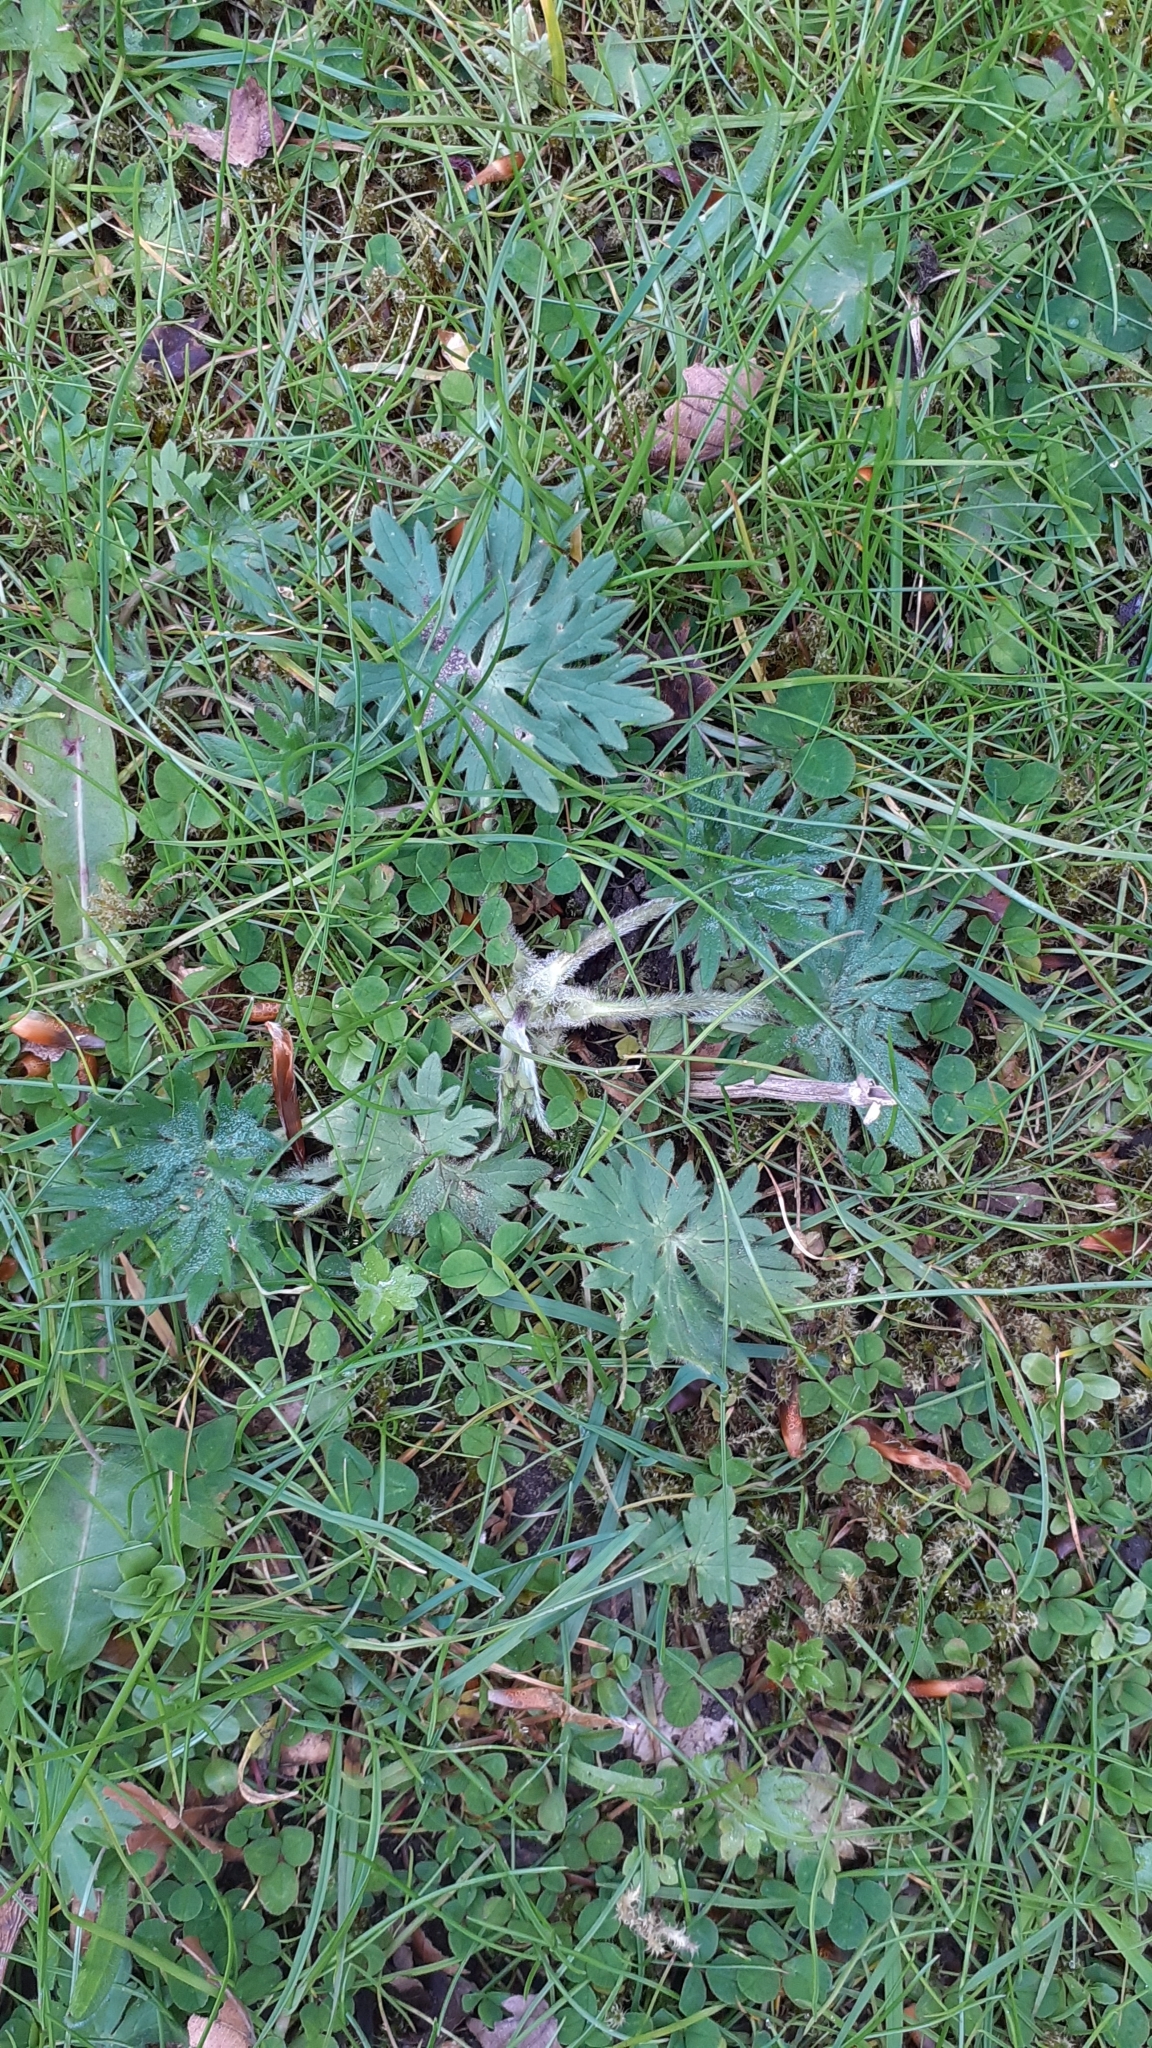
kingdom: Plantae
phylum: Tracheophyta
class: Magnoliopsida
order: Ranunculales
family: Ranunculaceae
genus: Ranunculus
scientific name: Ranunculus acris
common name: Meadow buttercup
